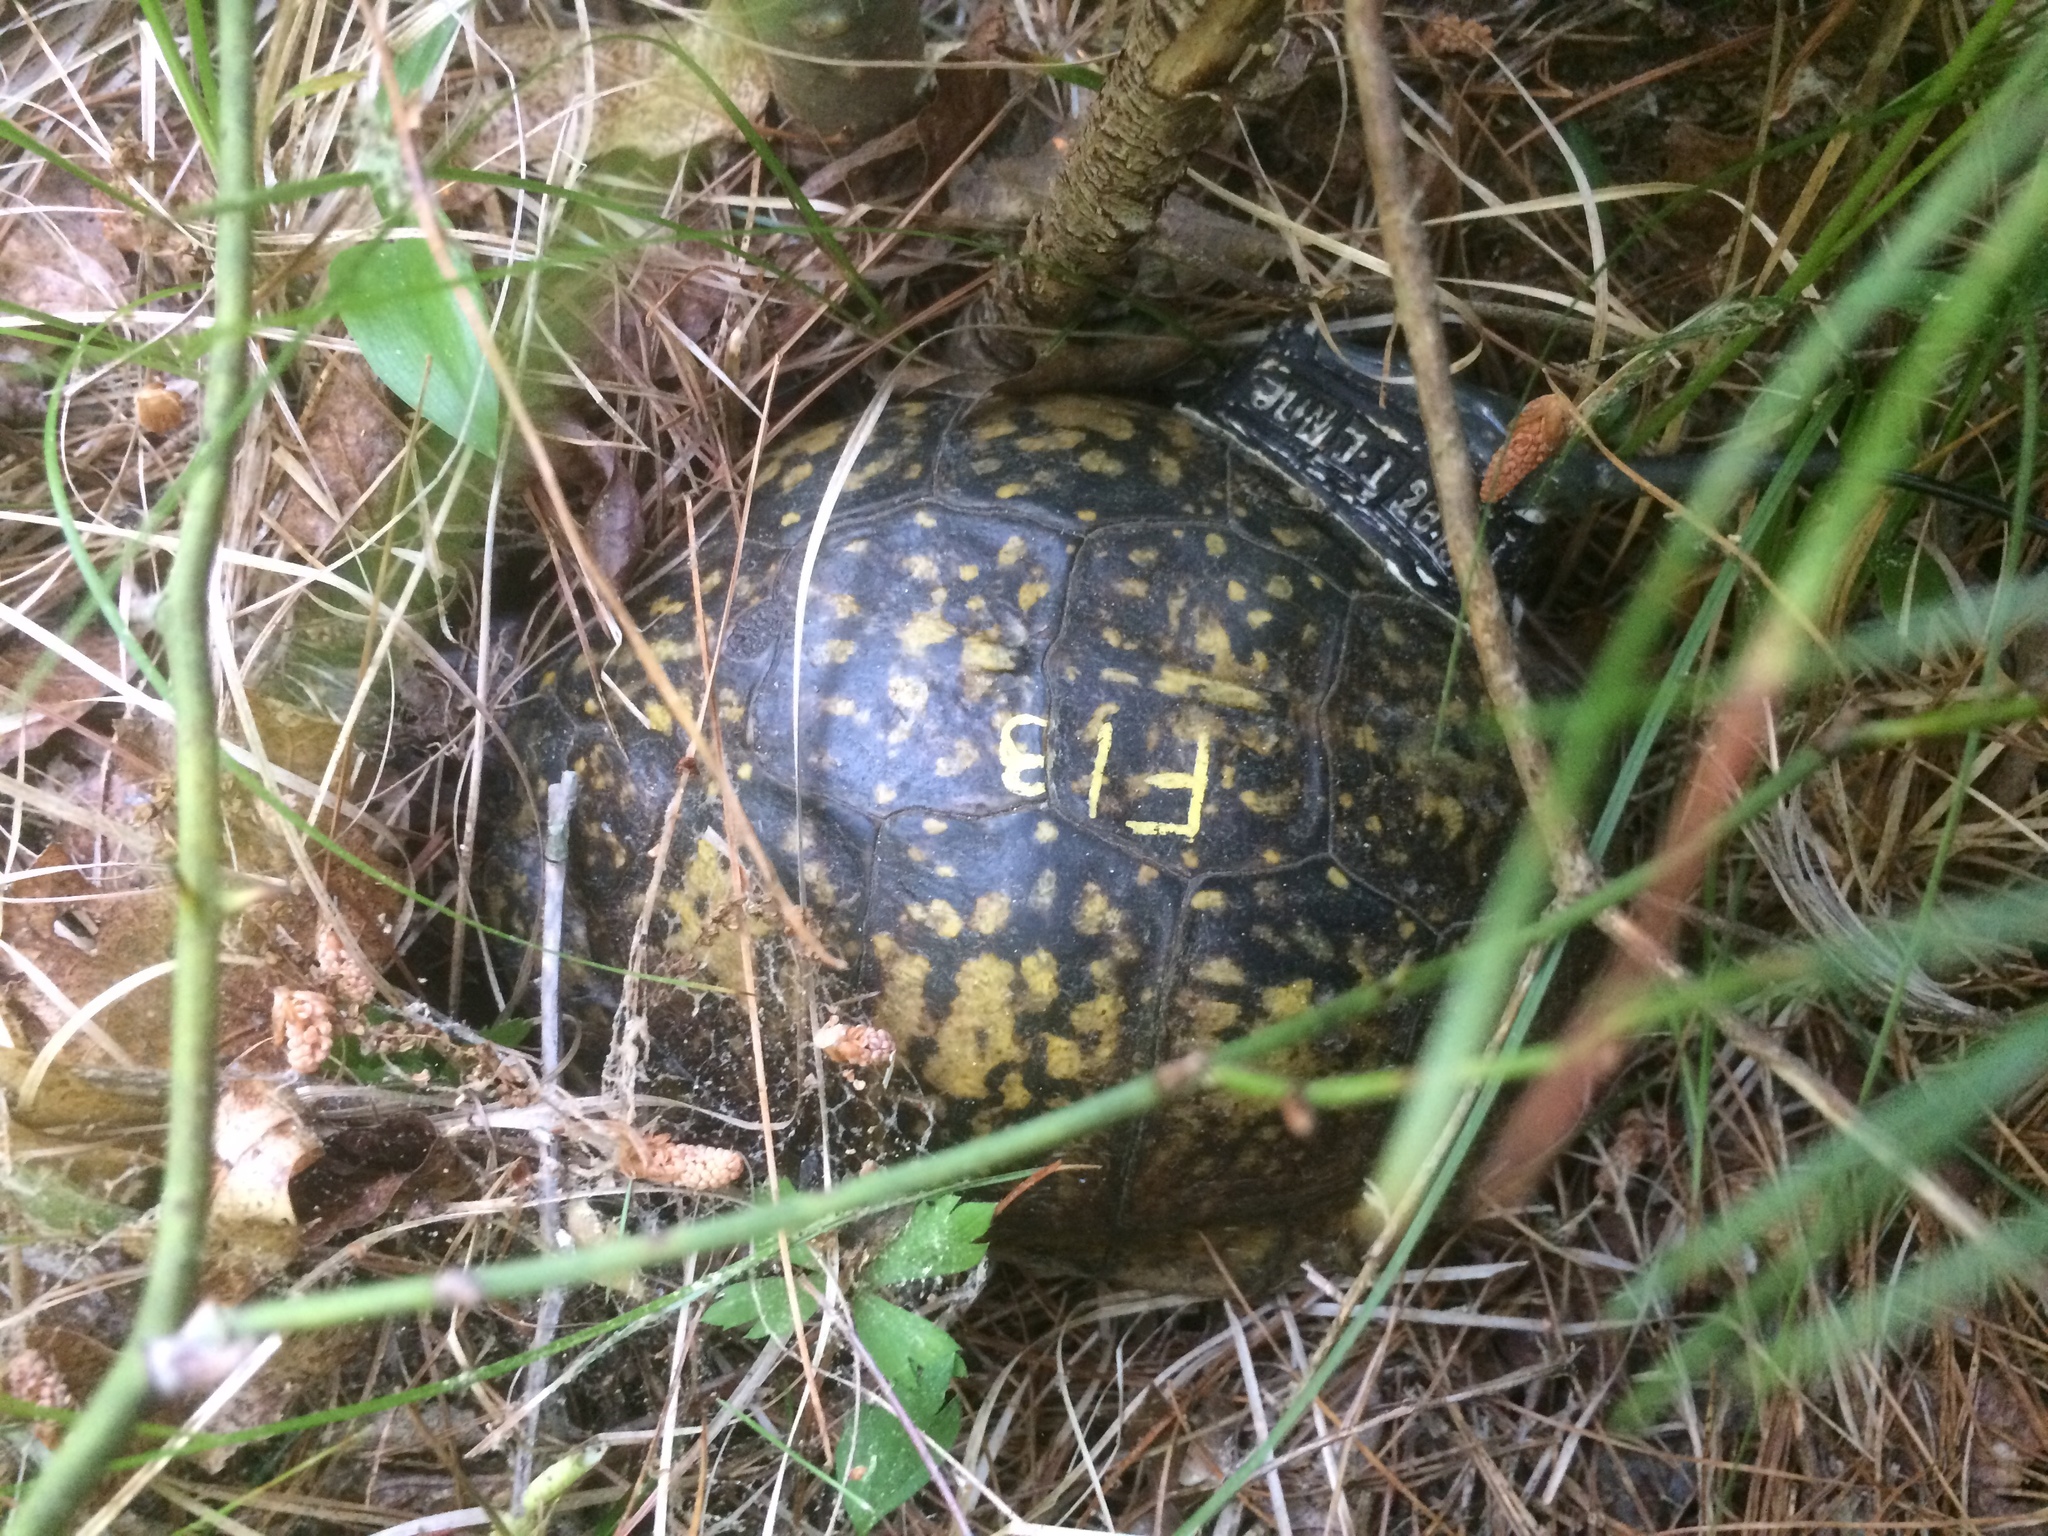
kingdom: Animalia
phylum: Chordata
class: Testudines
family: Emydidae
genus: Terrapene
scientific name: Terrapene carolina
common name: Common box turtle
